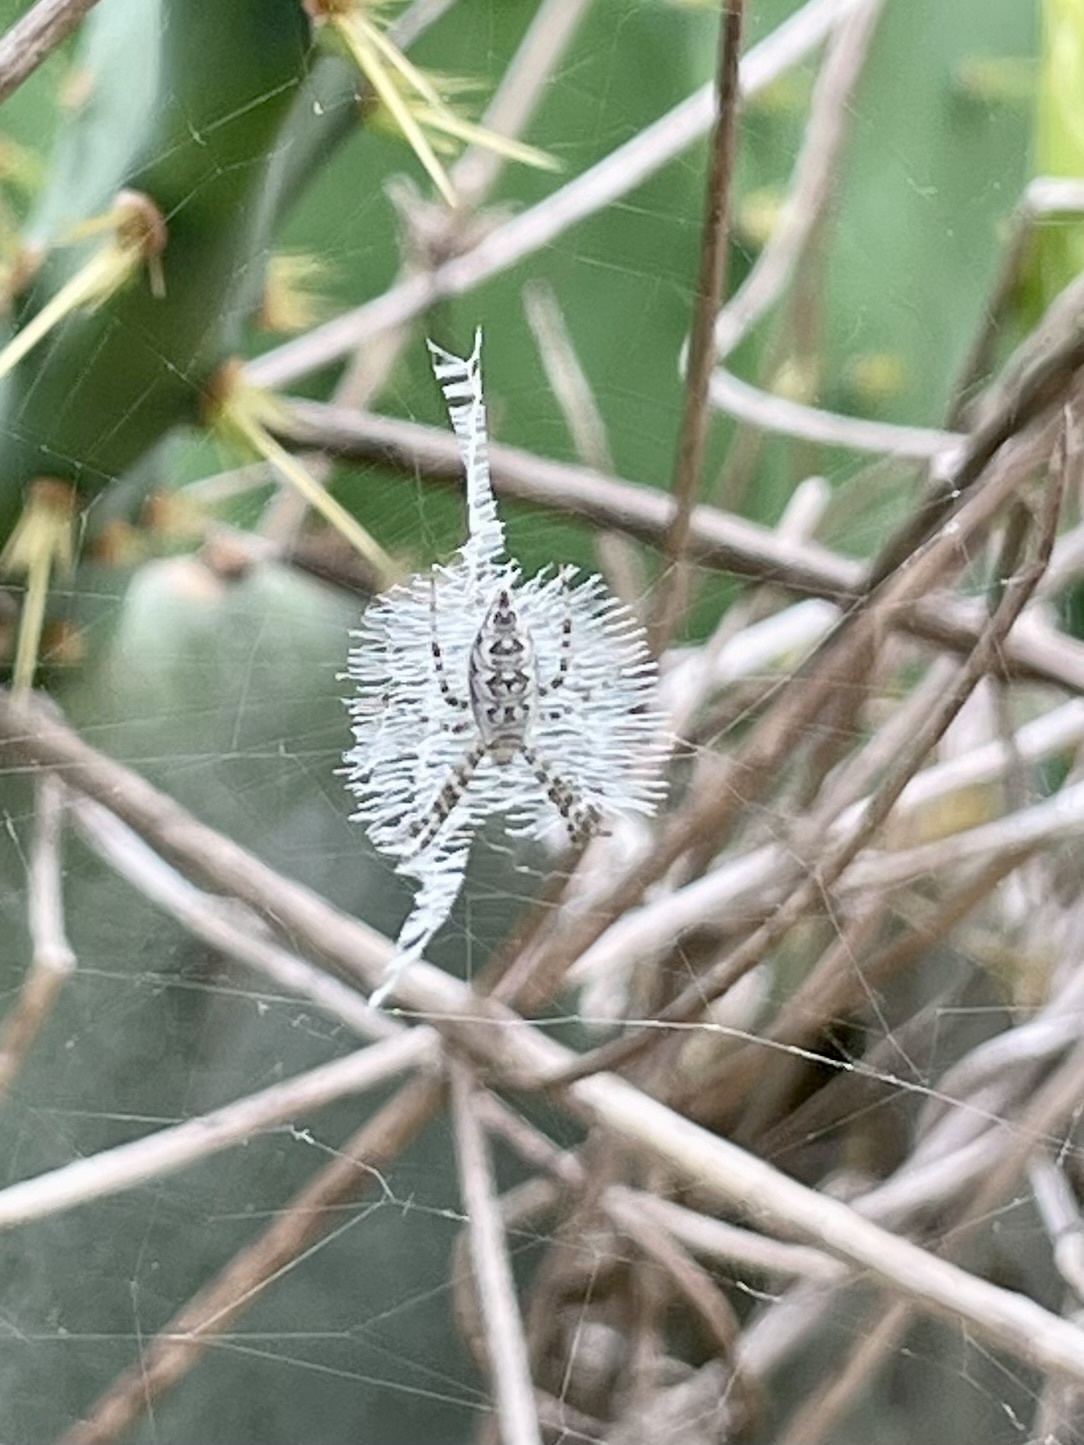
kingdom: Animalia
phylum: Arthropoda
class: Arachnida
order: Araneae
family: Araneidae
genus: Argiope
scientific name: Argiope aurantia
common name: Orb weavers
